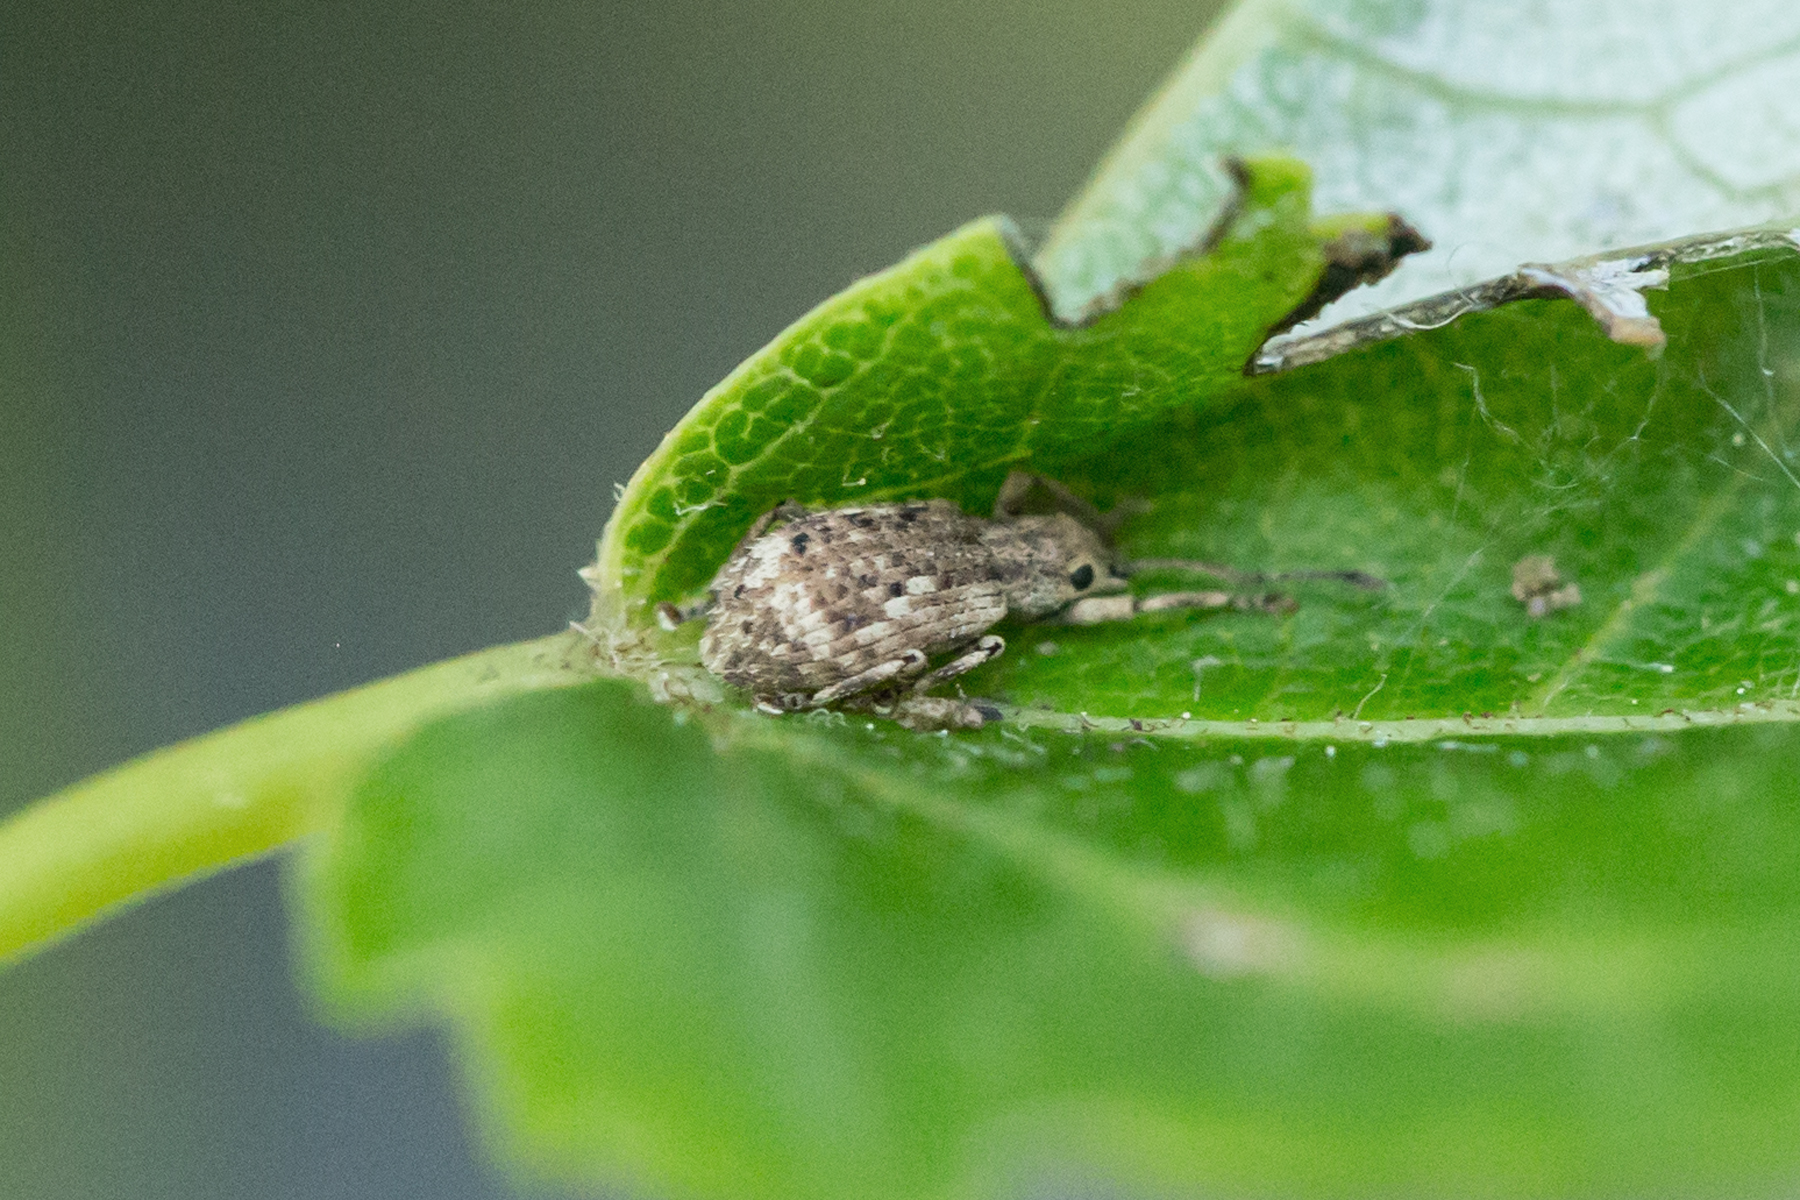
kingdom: Animalia
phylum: Arthropoda
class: Insecta
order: Coleoptera
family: Curculionidae
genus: Pseudoedophrys
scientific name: Pseudoedophrys hilleri
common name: Weevil
